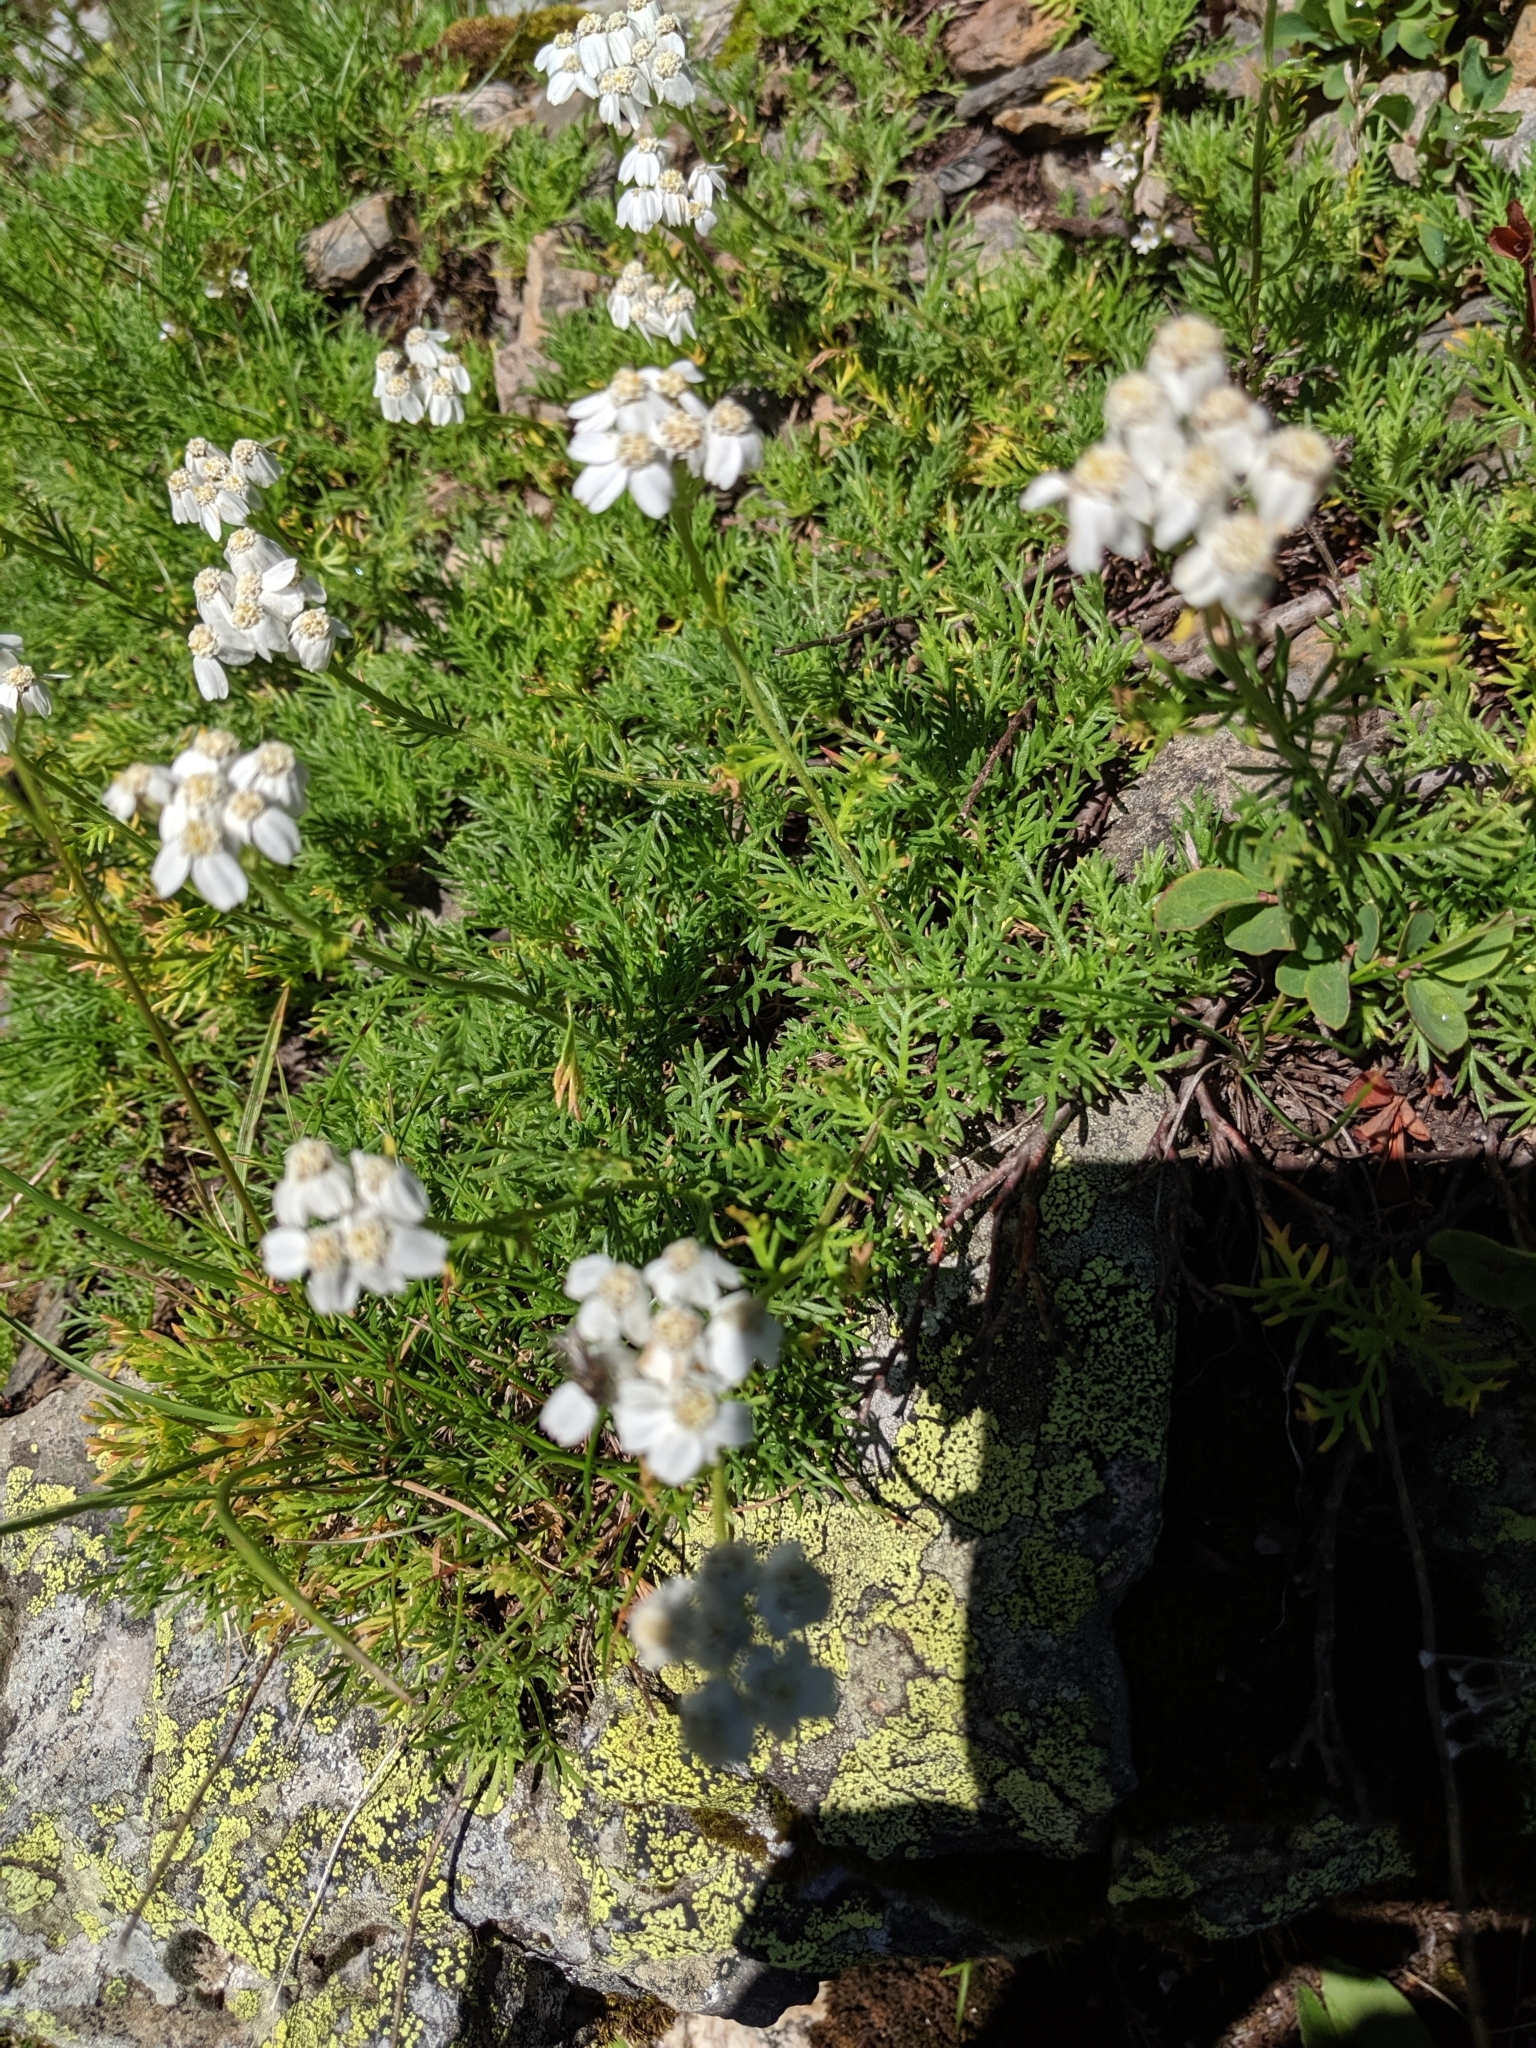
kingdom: Plantae
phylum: Tracheophyta
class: Magnoliopsida
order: Asterales
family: Asteraceae
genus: Achillea
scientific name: Achillea erba-rotta
